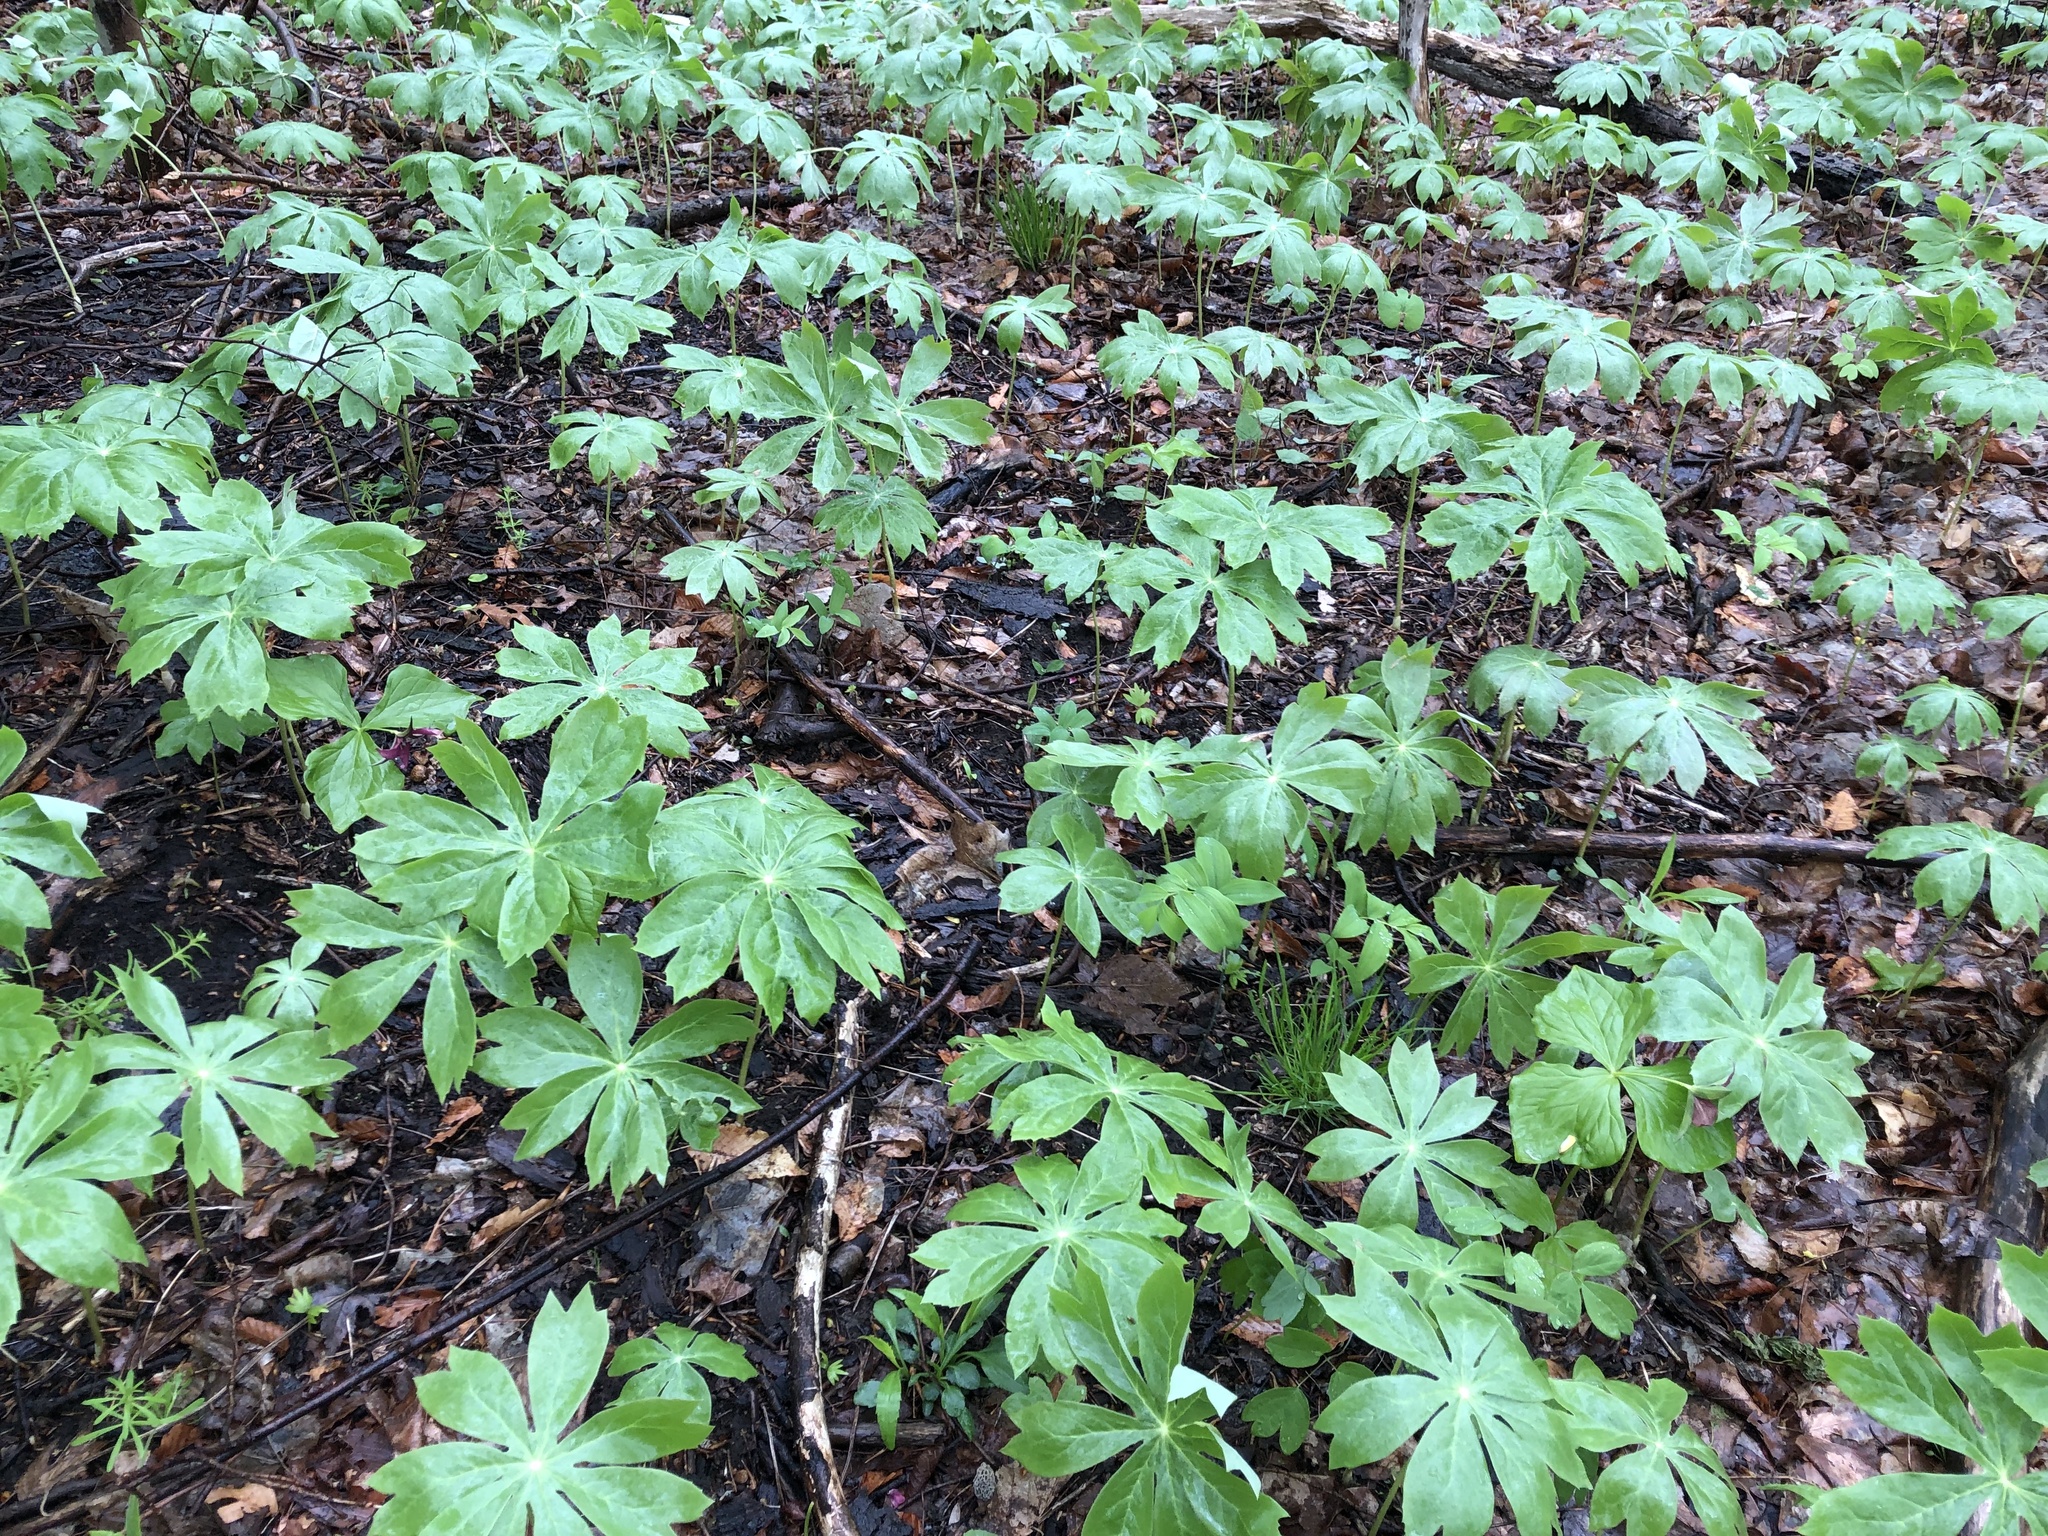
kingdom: Plantae
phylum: Tracheophyta
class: Magnoliopsida
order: Ranunculales
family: Berberidaceae
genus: Podophyllum
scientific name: Podophyllum peltatum
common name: Wild mandrake
